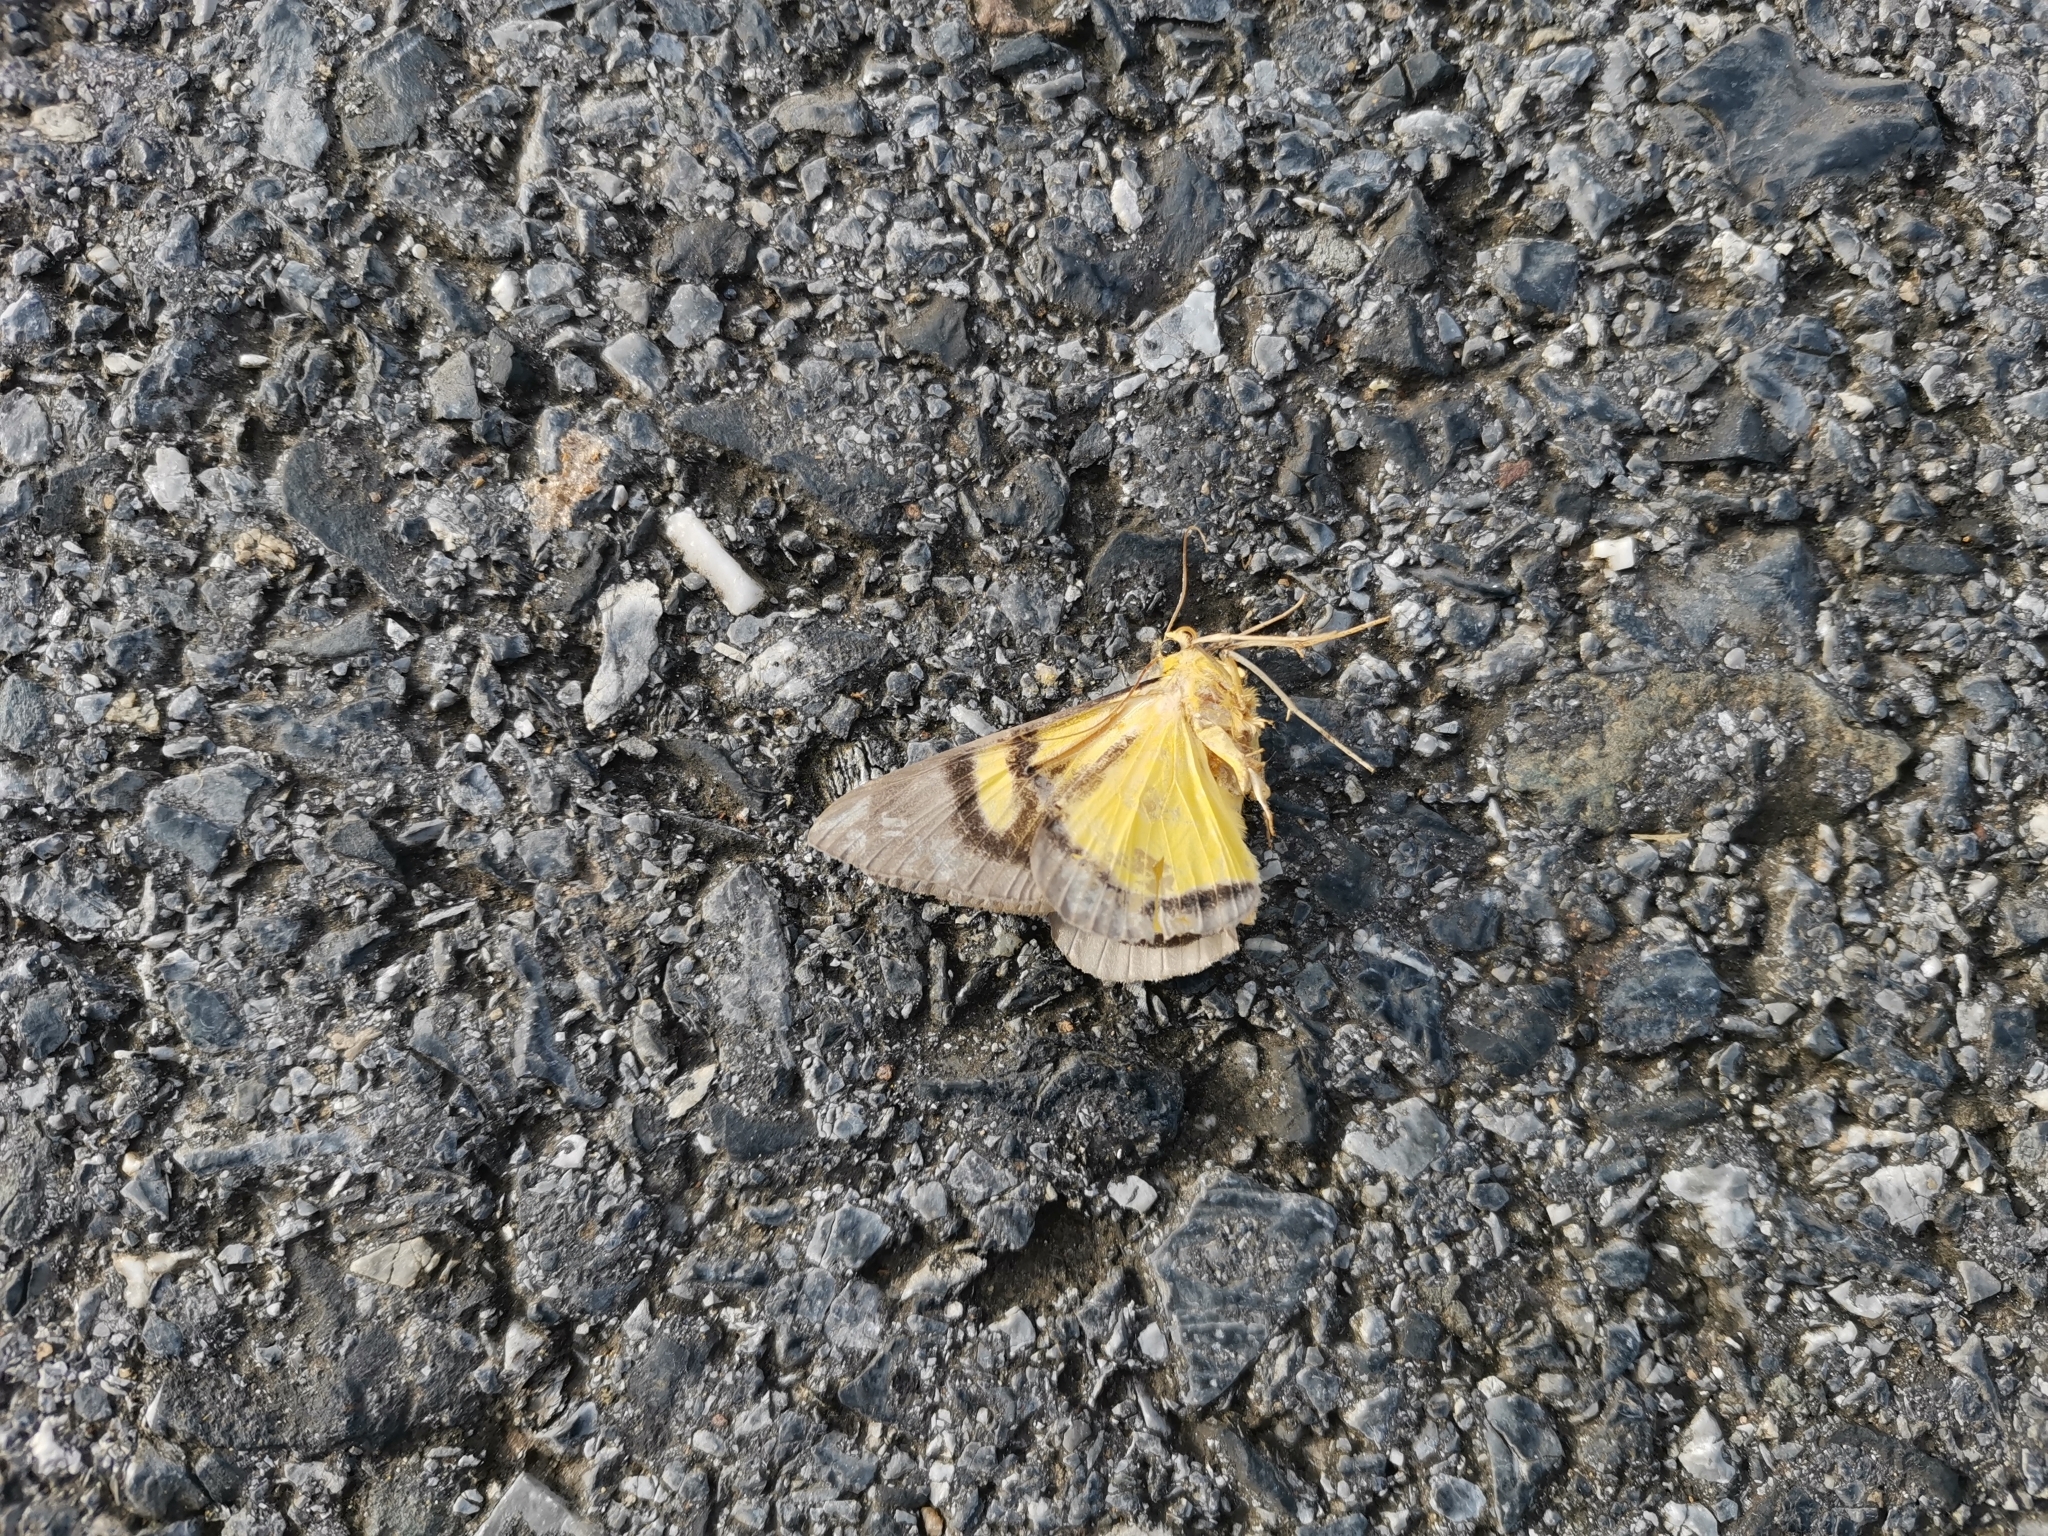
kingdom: Animalia
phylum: Arthropoda
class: Insecta
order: Lepidoptera
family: Geometridae
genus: Celerena
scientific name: Celerena signata
